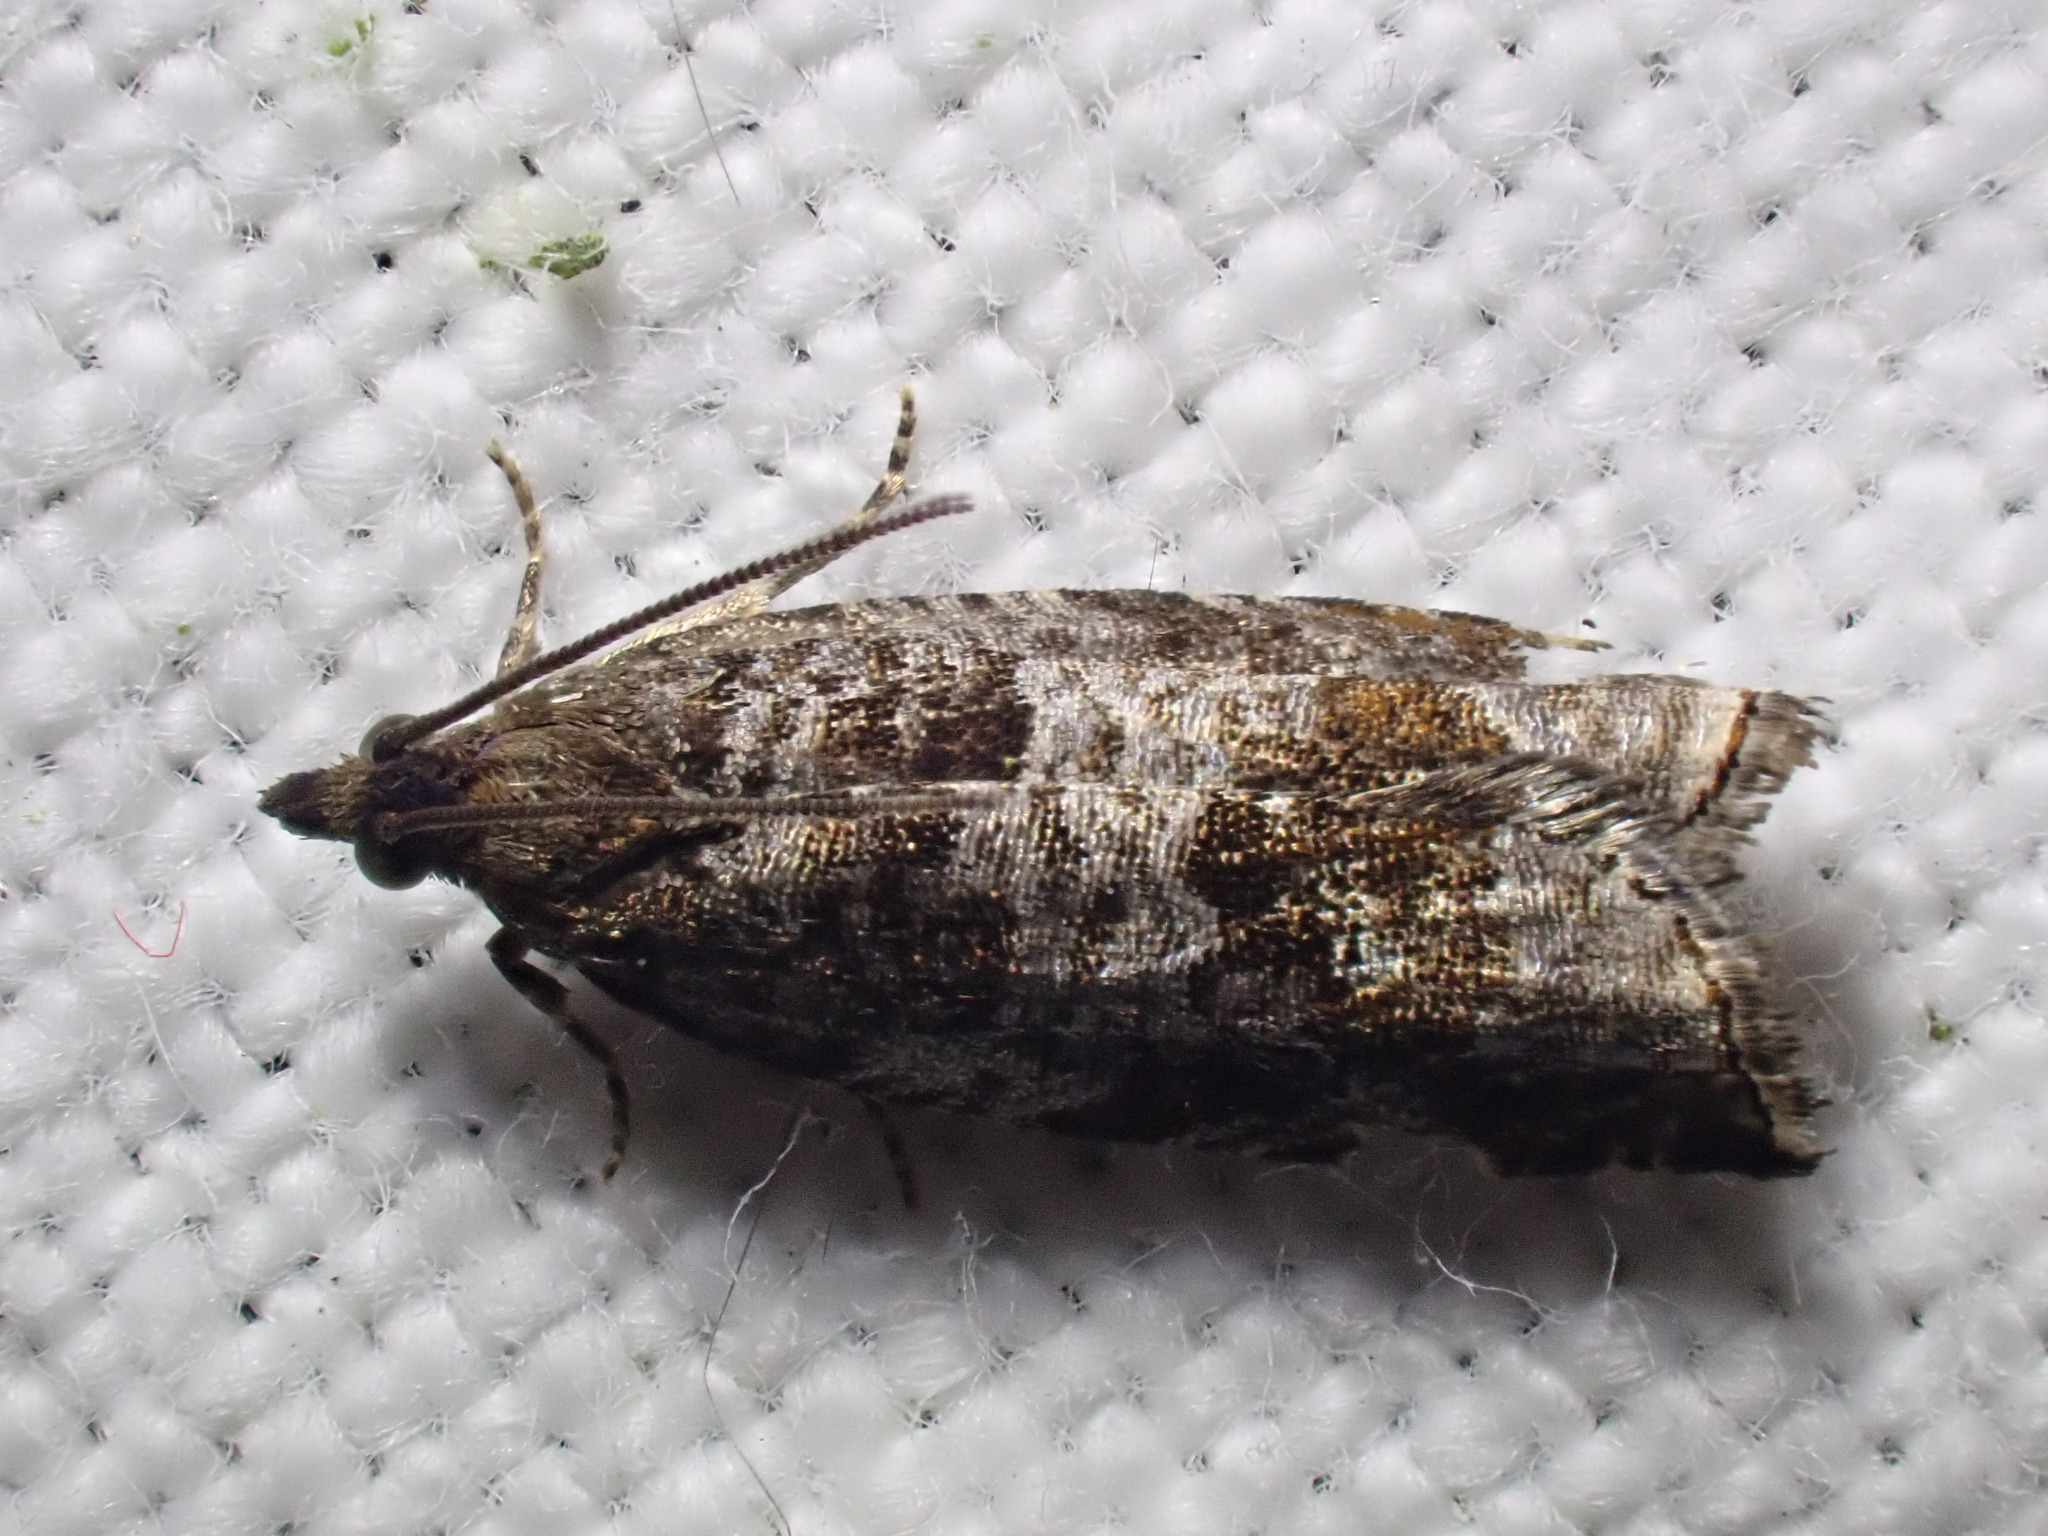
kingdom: Animalia
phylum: Arthropoda
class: Insecta
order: Lepidoptera
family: Tortricidae
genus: Ancylis
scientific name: Ancylis achatana
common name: Triangle-marked roller
